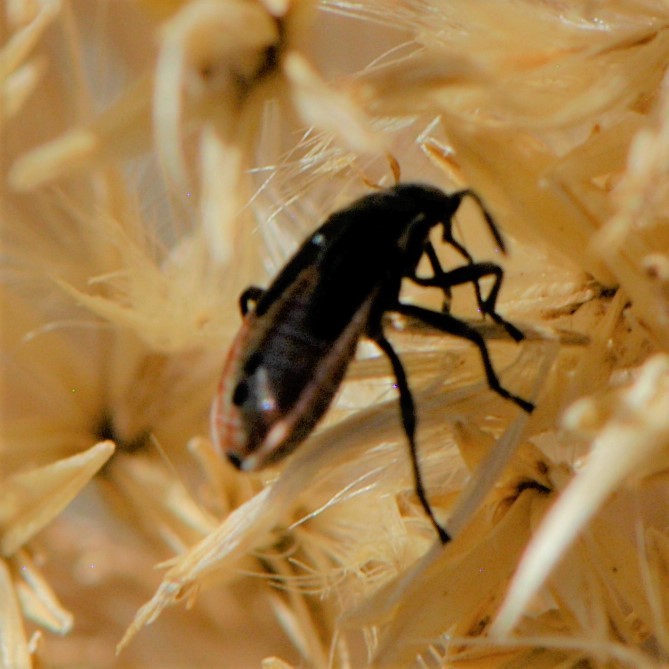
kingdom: Animalia
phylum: Arthropoda
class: Insecta
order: Hemiptera
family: Lygaeidae
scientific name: Lygaeidae
